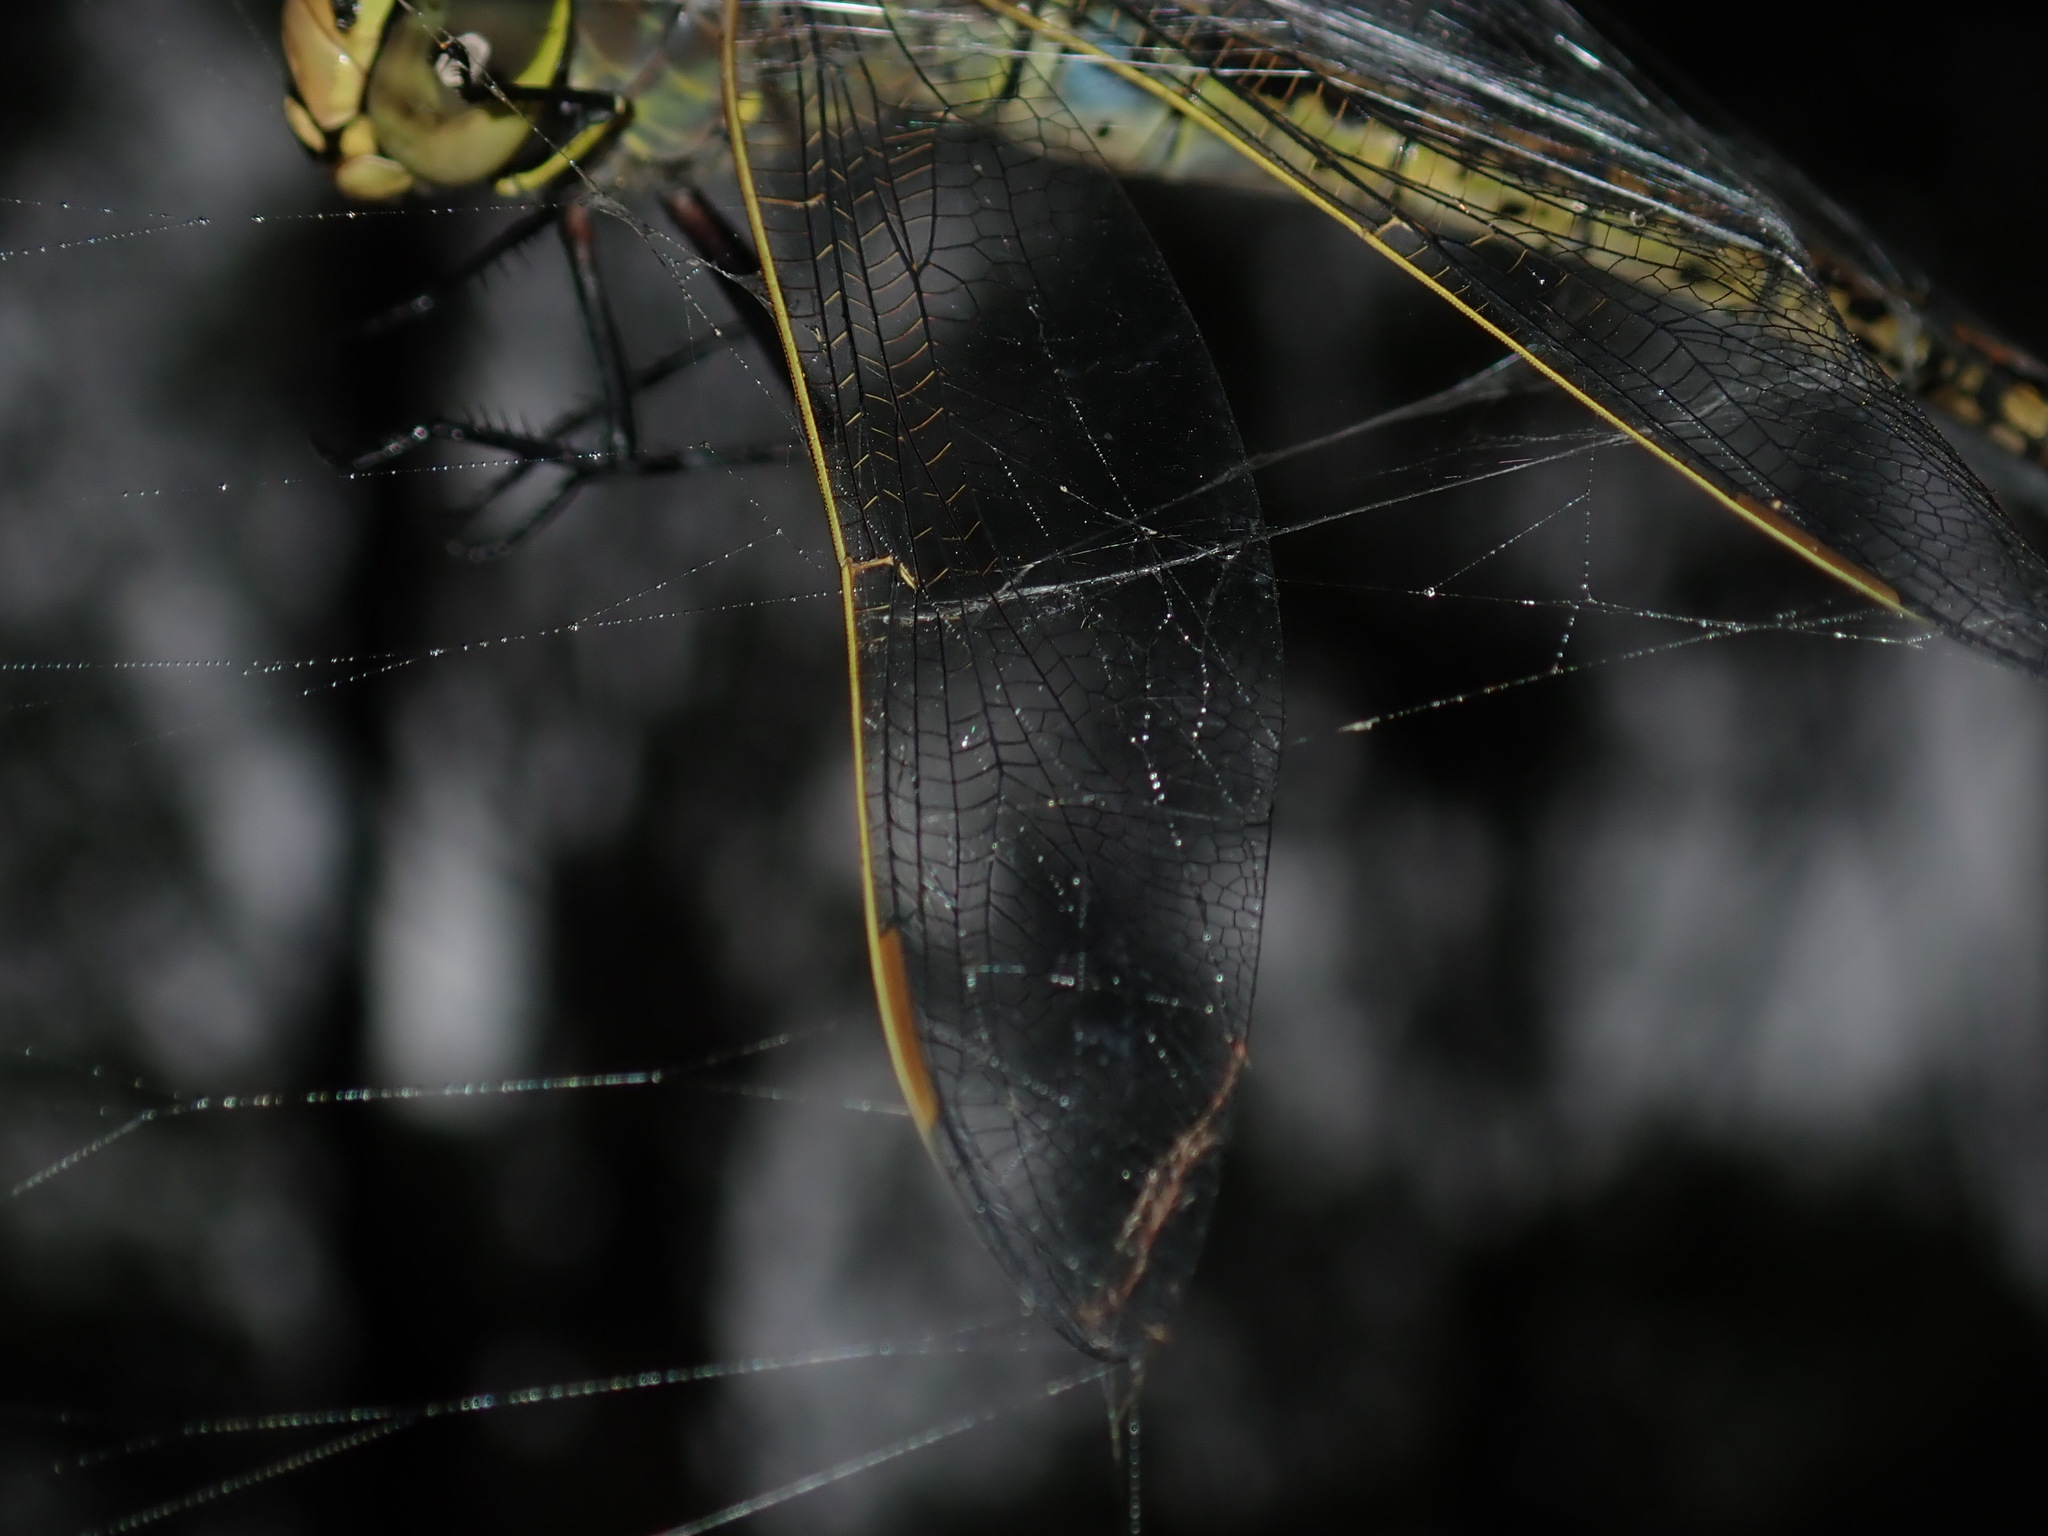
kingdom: Animalia
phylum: Arthropoda
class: Insecta
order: Odonata
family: Aeshnidae
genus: Anax
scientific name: Anax papuensis
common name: Australian emperor
